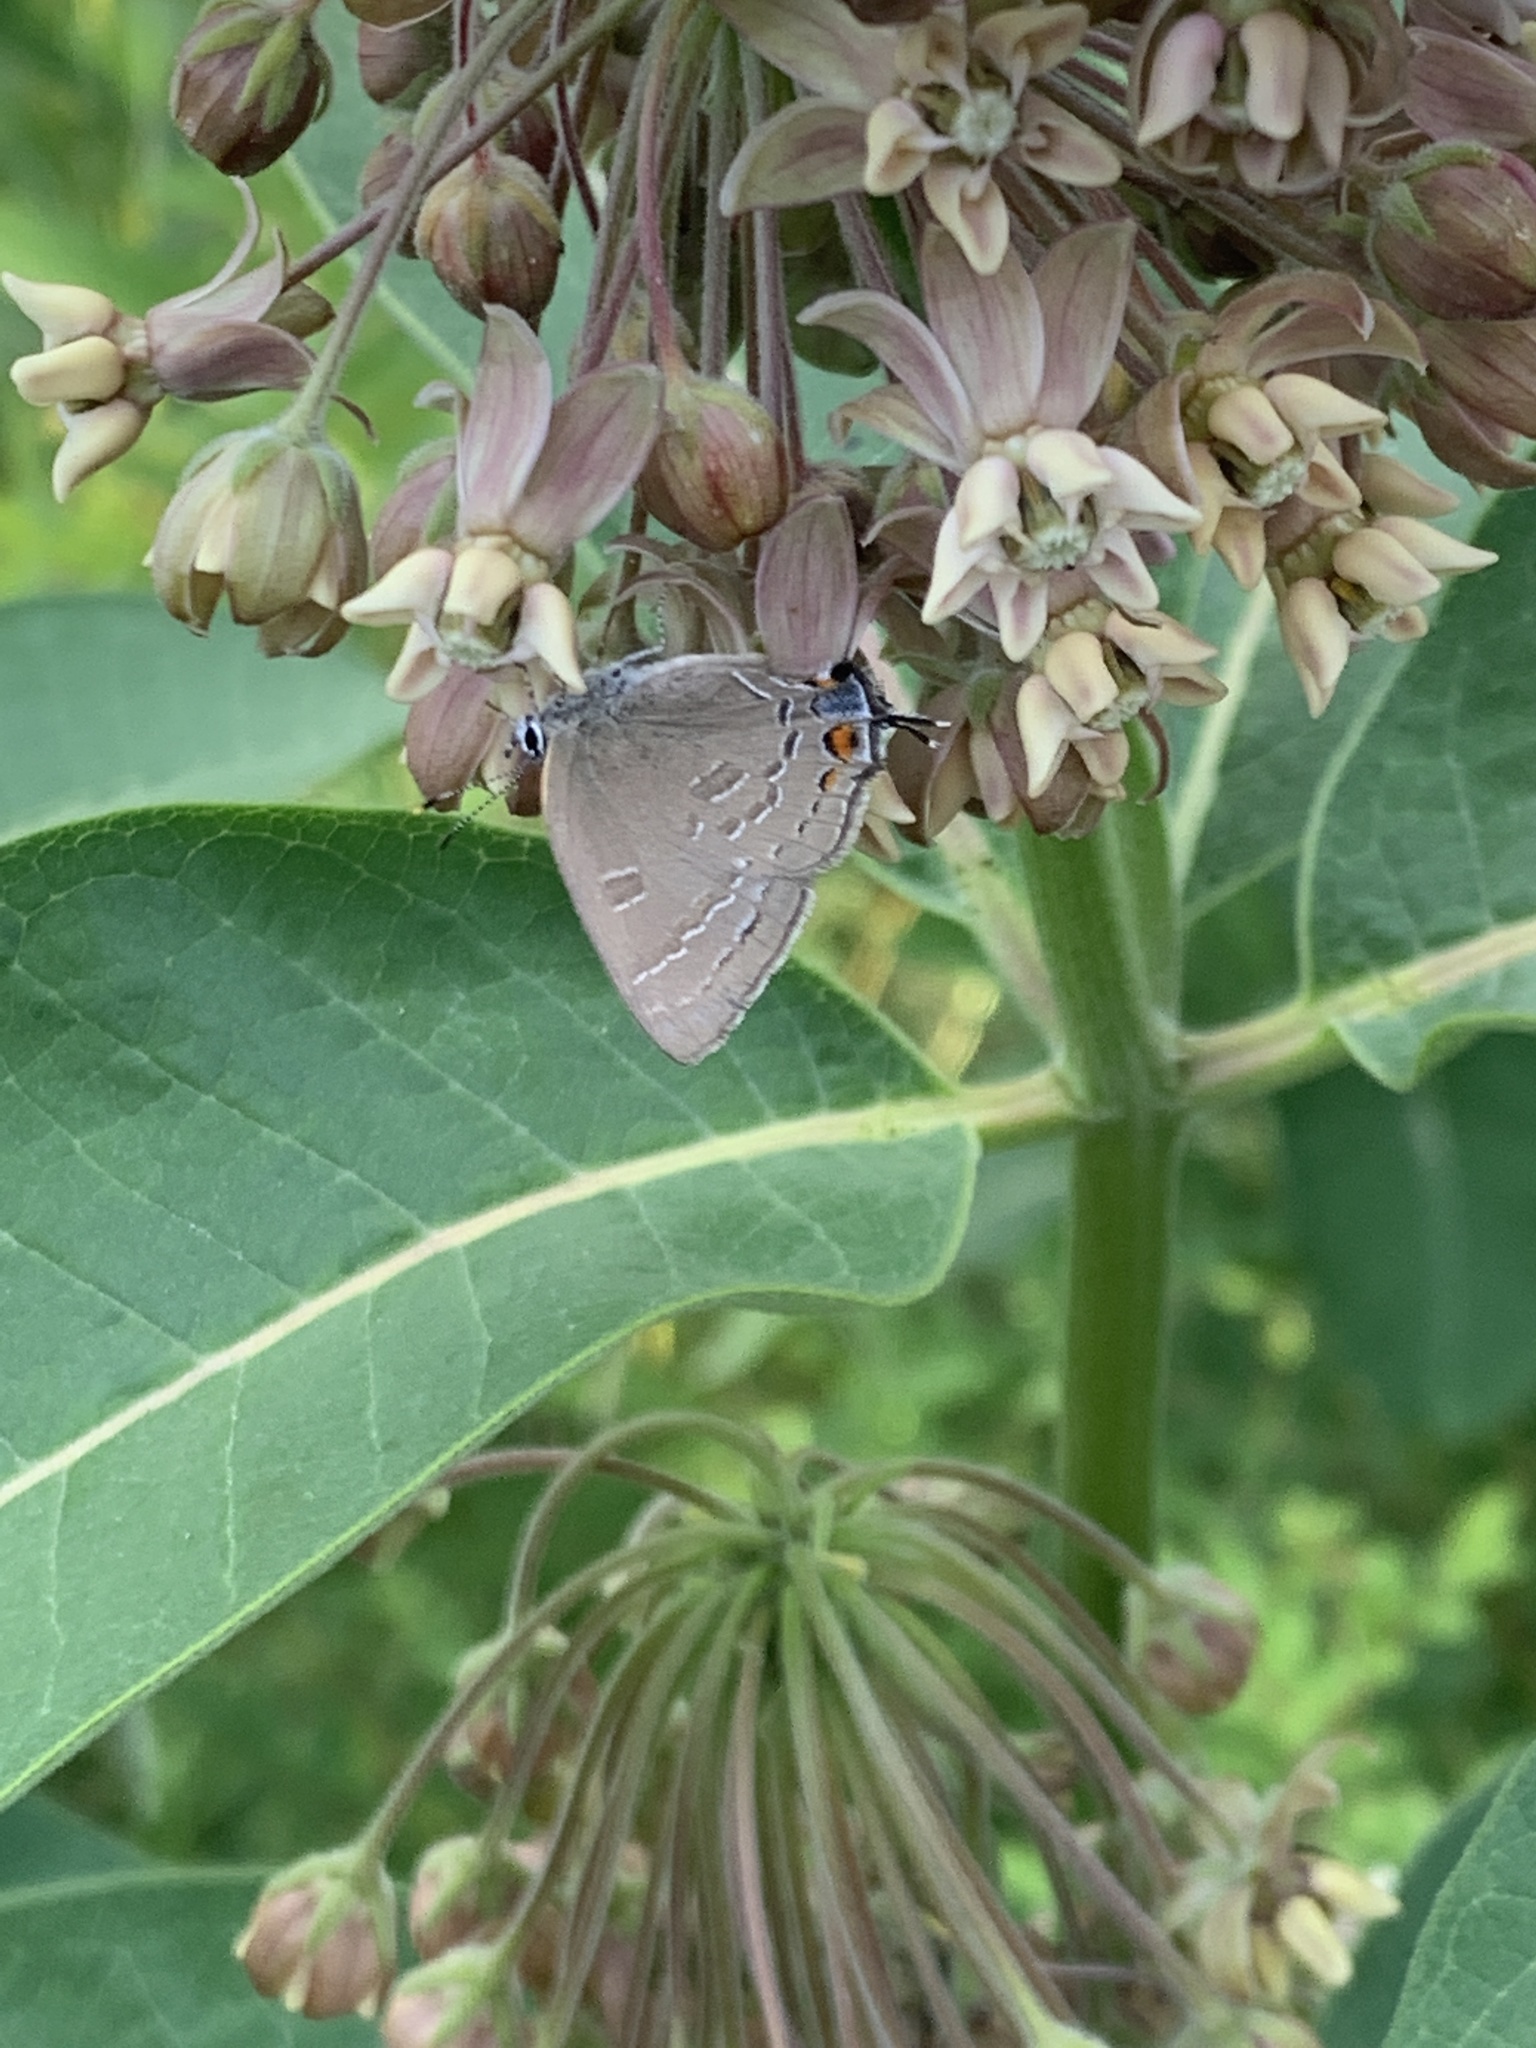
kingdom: Animalia
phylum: Arthropoda
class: Insecta
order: Lepidoptera
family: Lycaenidae
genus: Satyrium
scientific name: Satyrium calanus
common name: Banded hairstreak
